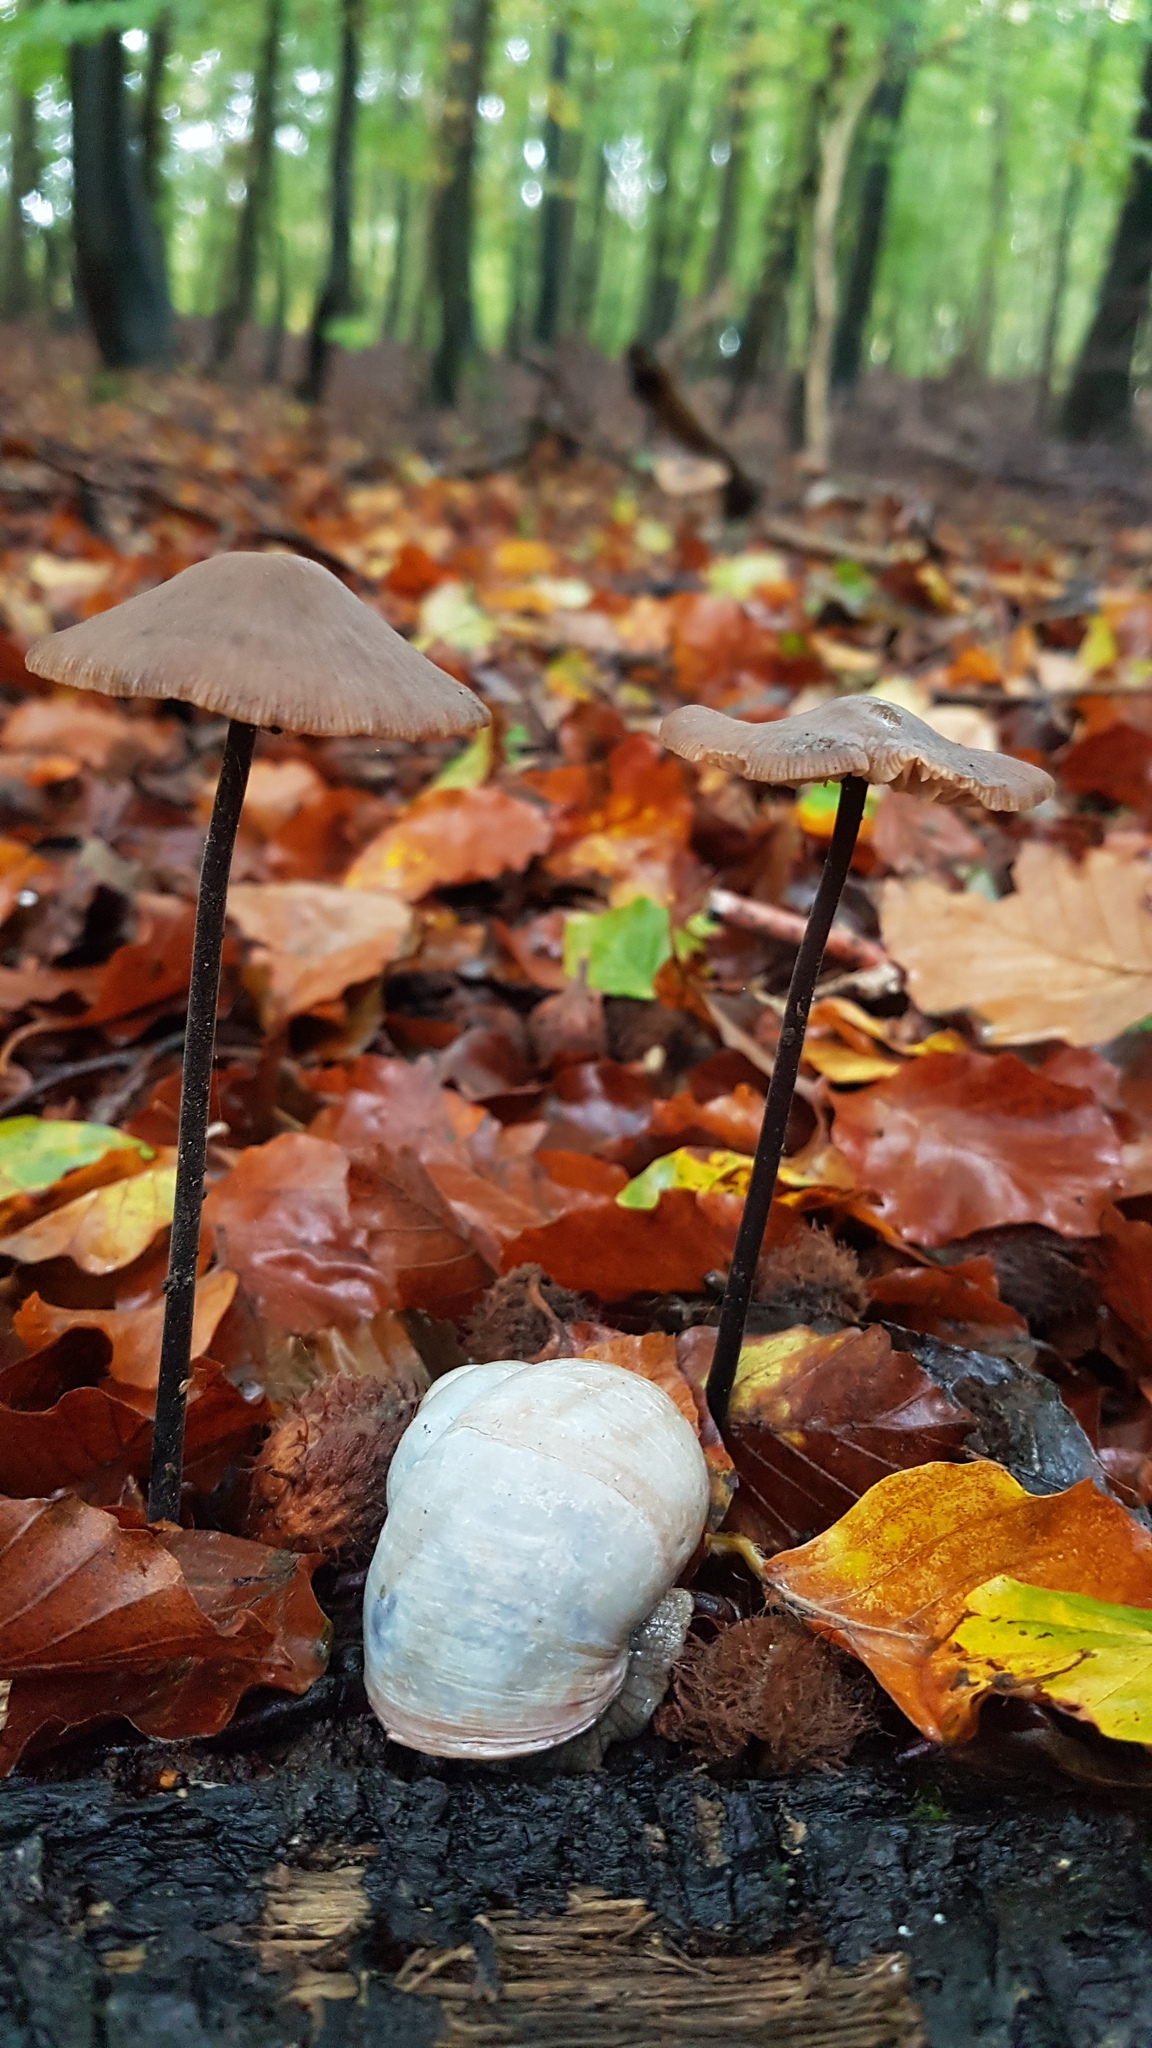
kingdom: Fungi
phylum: Basidiomycota
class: Agaricomycetes
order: Agaricales
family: Omphalotaceae
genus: Mycetinis
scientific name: Mycetinis alliaceus
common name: Garlic parachute
